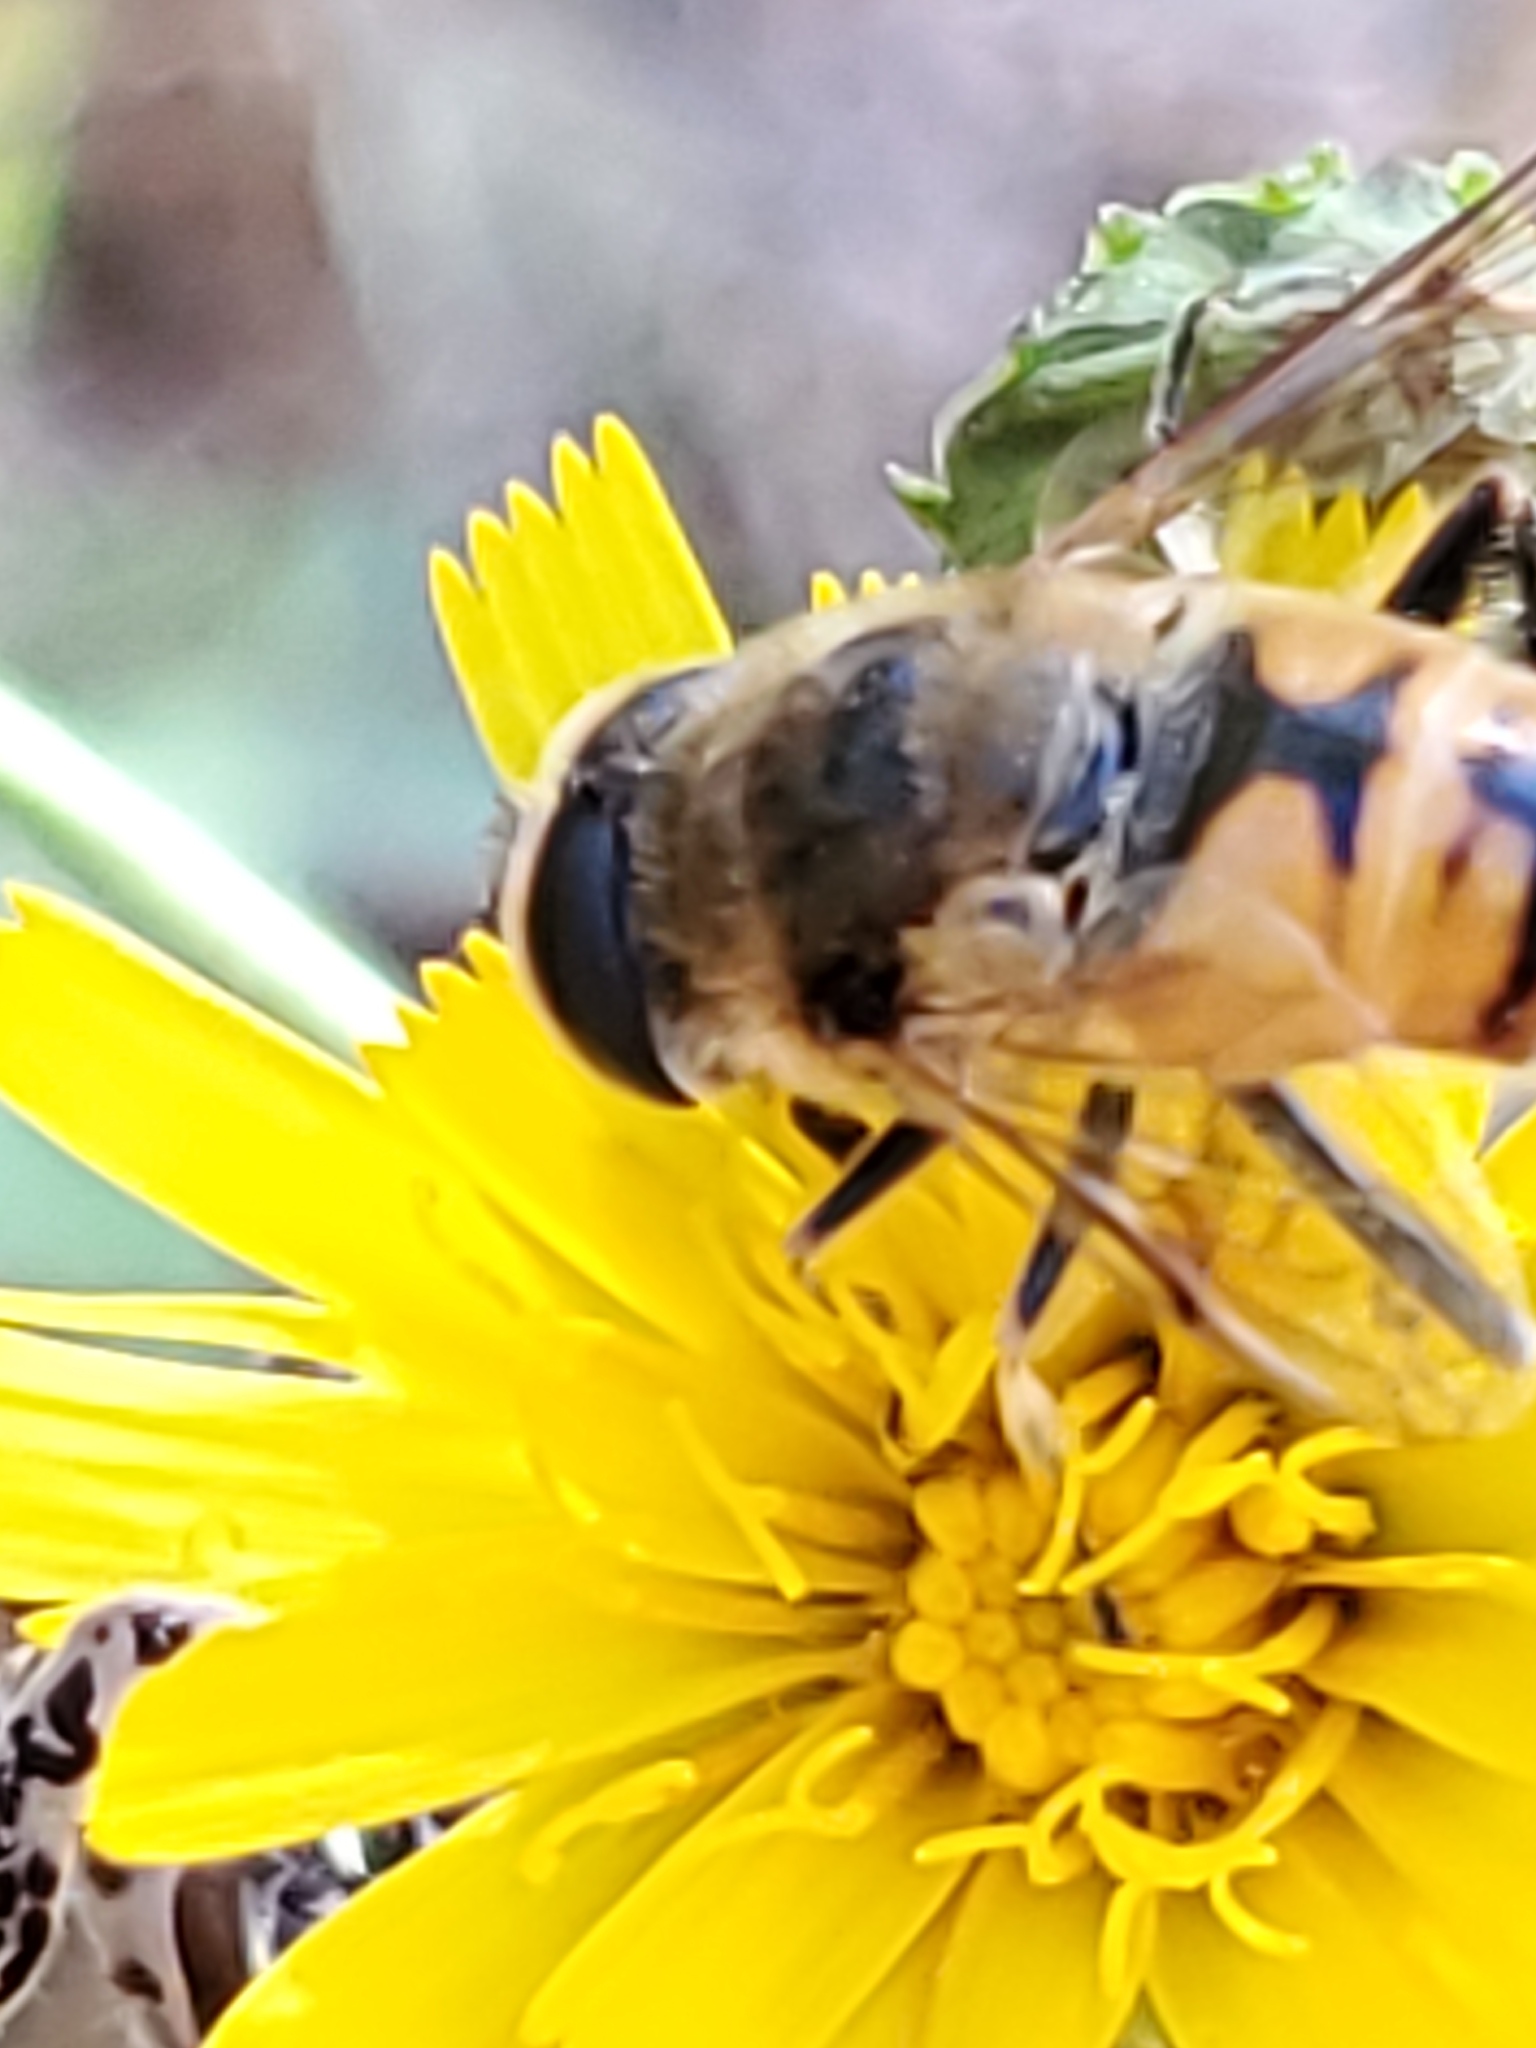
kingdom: Animalia
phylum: Arthropoda
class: Insecta
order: Diptera
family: Syrphidae
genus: Eristalis
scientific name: Eristalis tenax
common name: Drone fly
